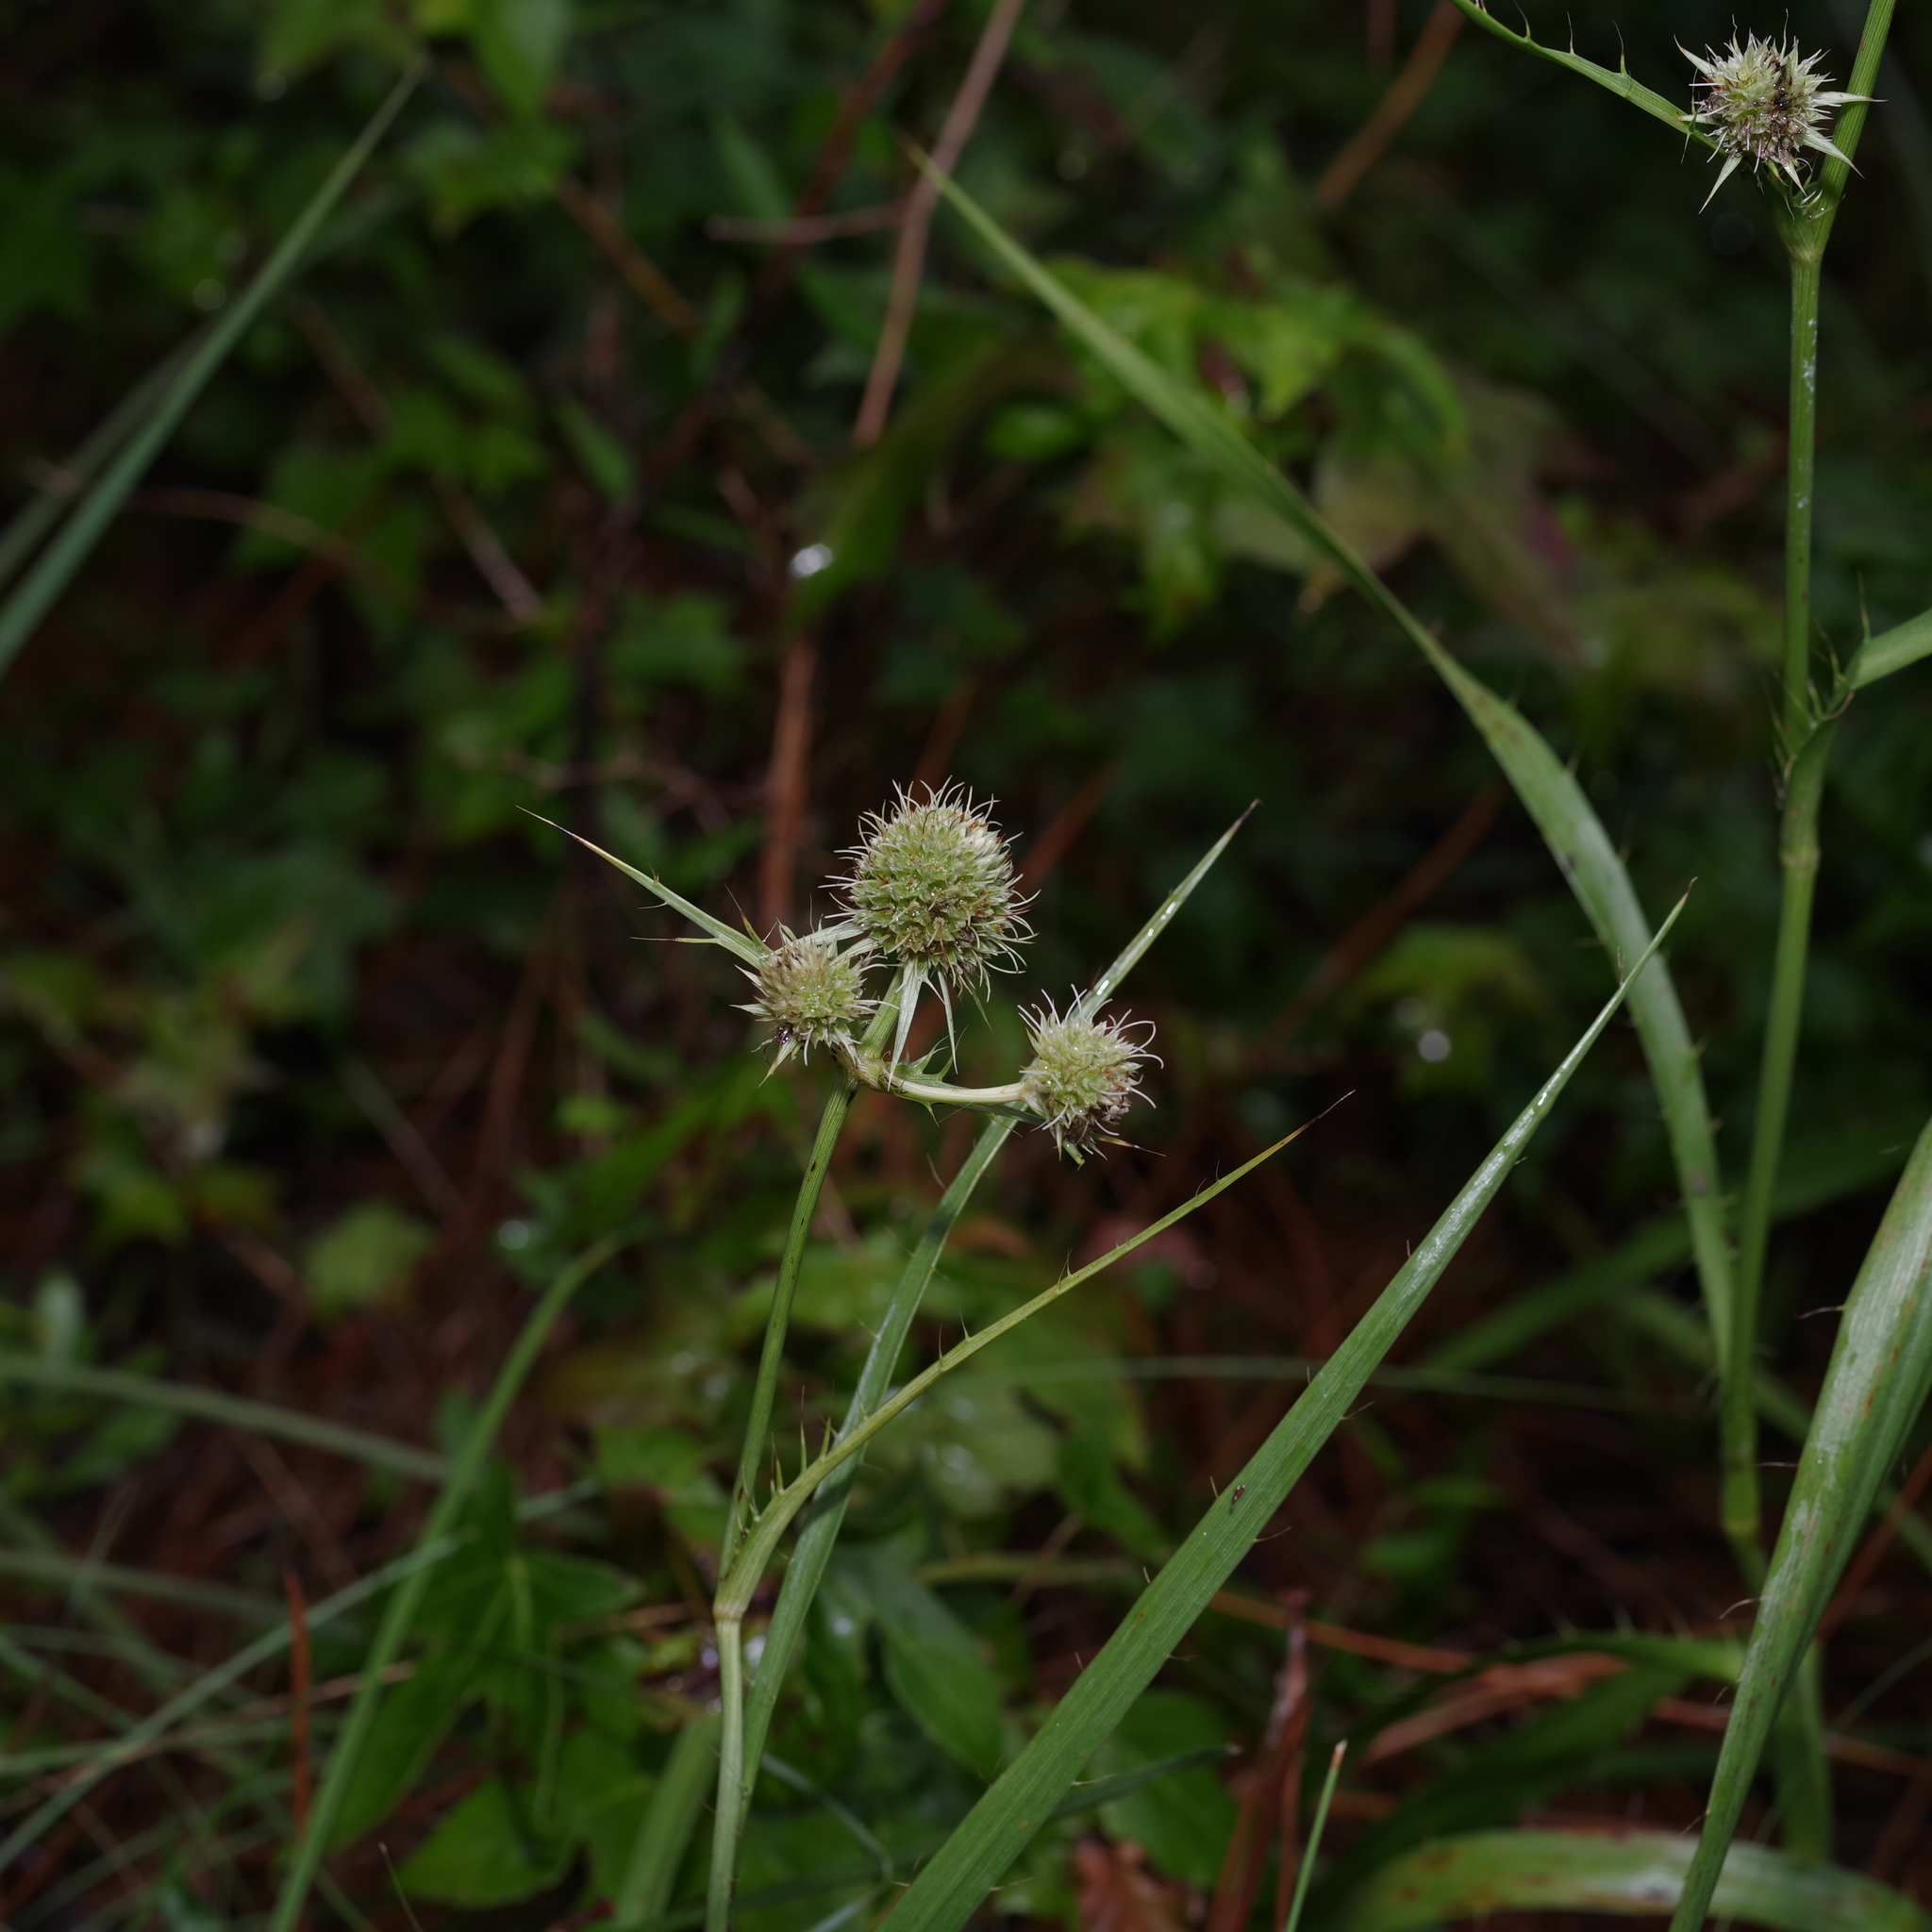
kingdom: Plantae
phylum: Tracheophyta
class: Magnoliopsida
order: Apiales
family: Apiaceae
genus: Eryngium
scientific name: Eryngium yuccifolium
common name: Button eryngo
